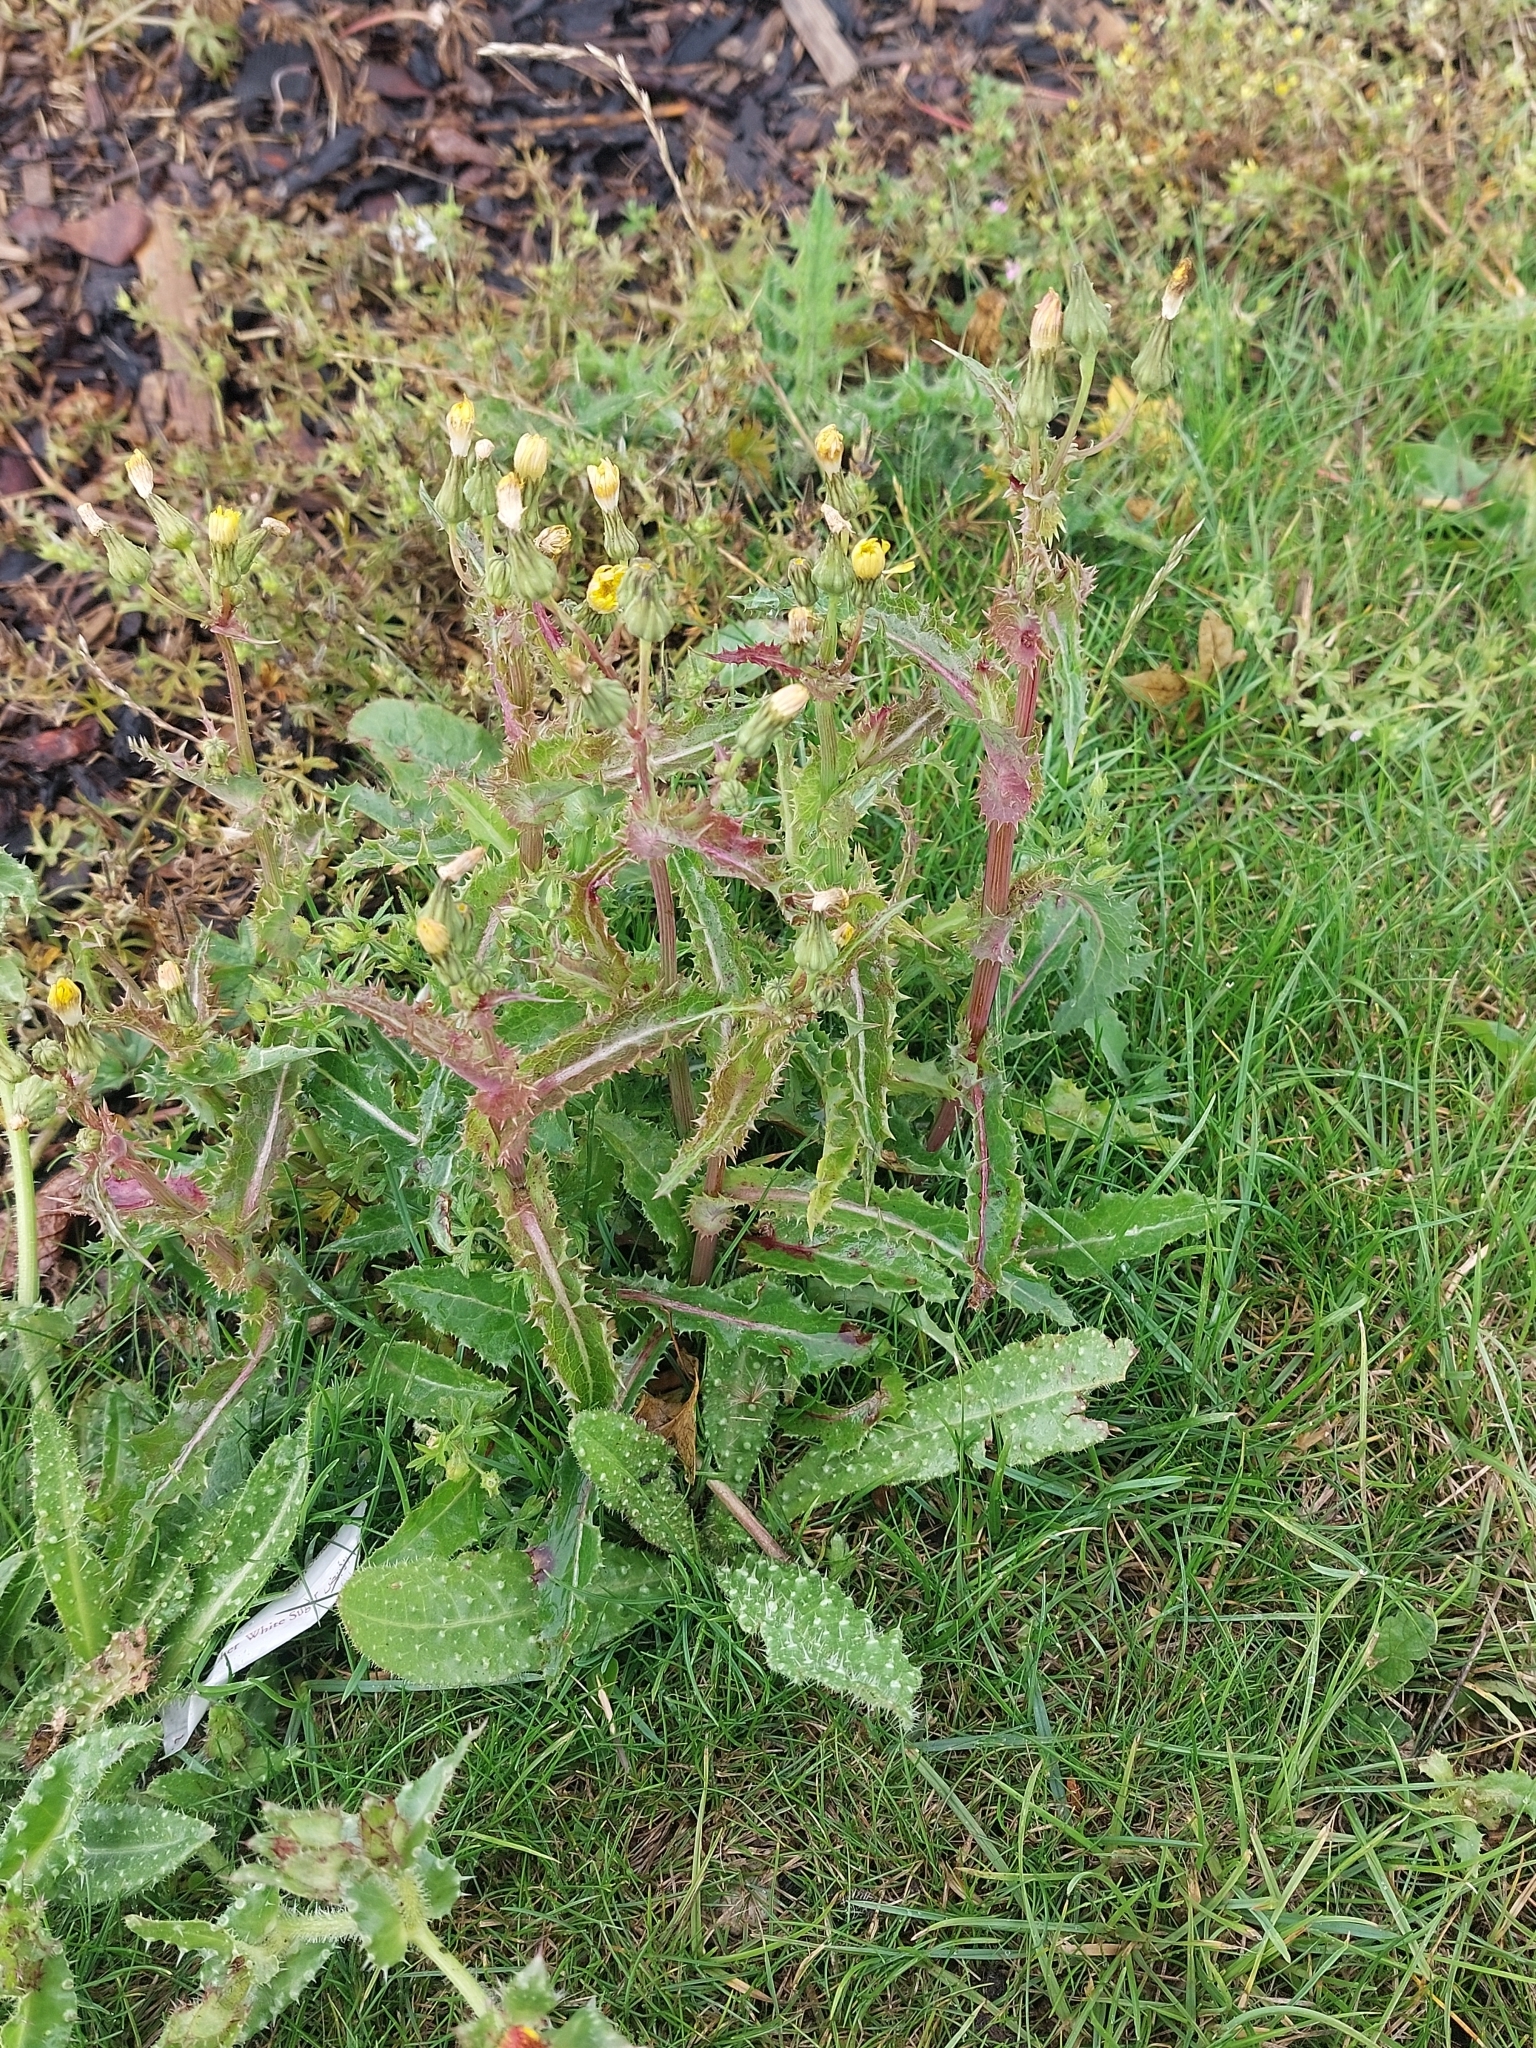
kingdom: Plantae
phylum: Tracheophyta
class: Magnoliopsida
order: Asterales
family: Asteraceae
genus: Helminthotheca
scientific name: Helminthotheca echioides
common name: Ox-tongue
